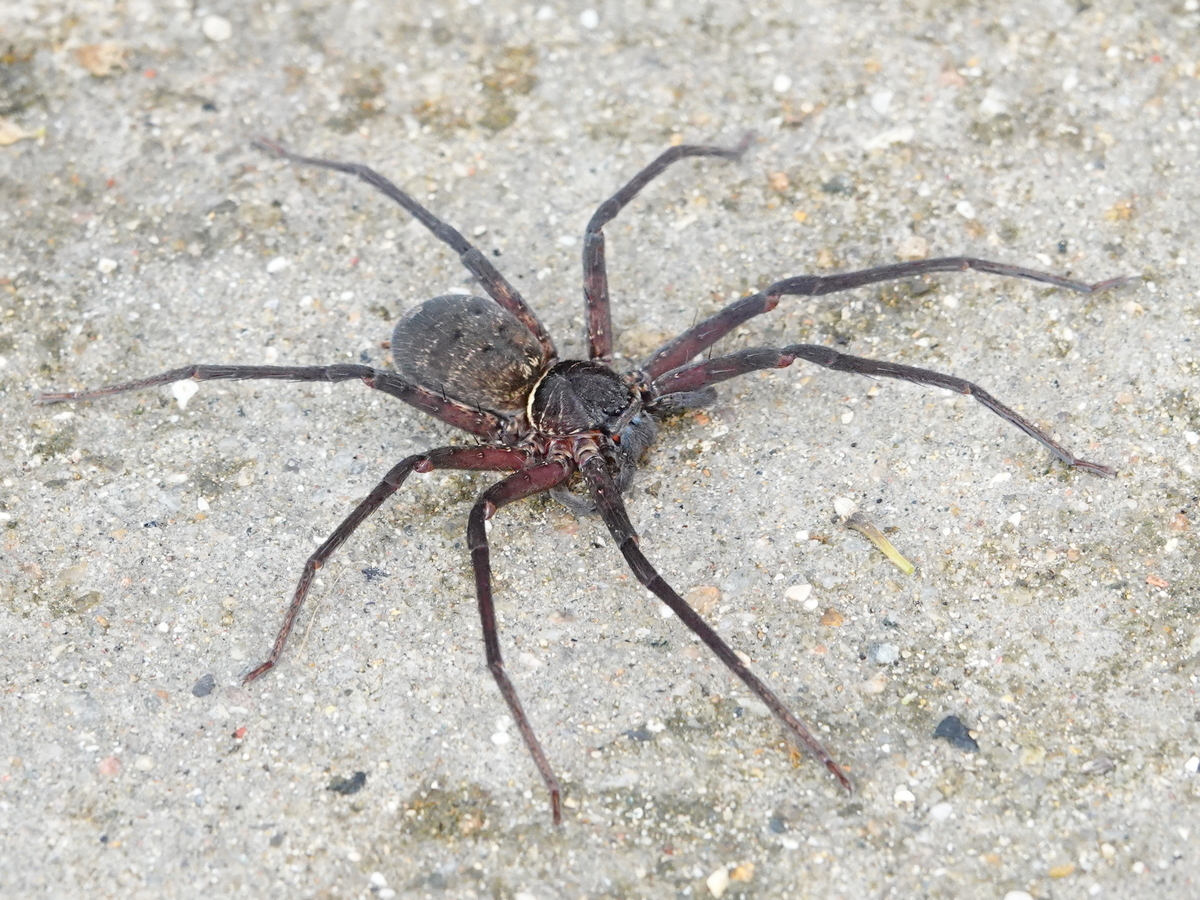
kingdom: Animalia
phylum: Arthropoda
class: Arachnida
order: Araneae
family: Sparassidae
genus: Heteropoda
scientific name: Heteropoda venatoria
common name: Huntsman spider
